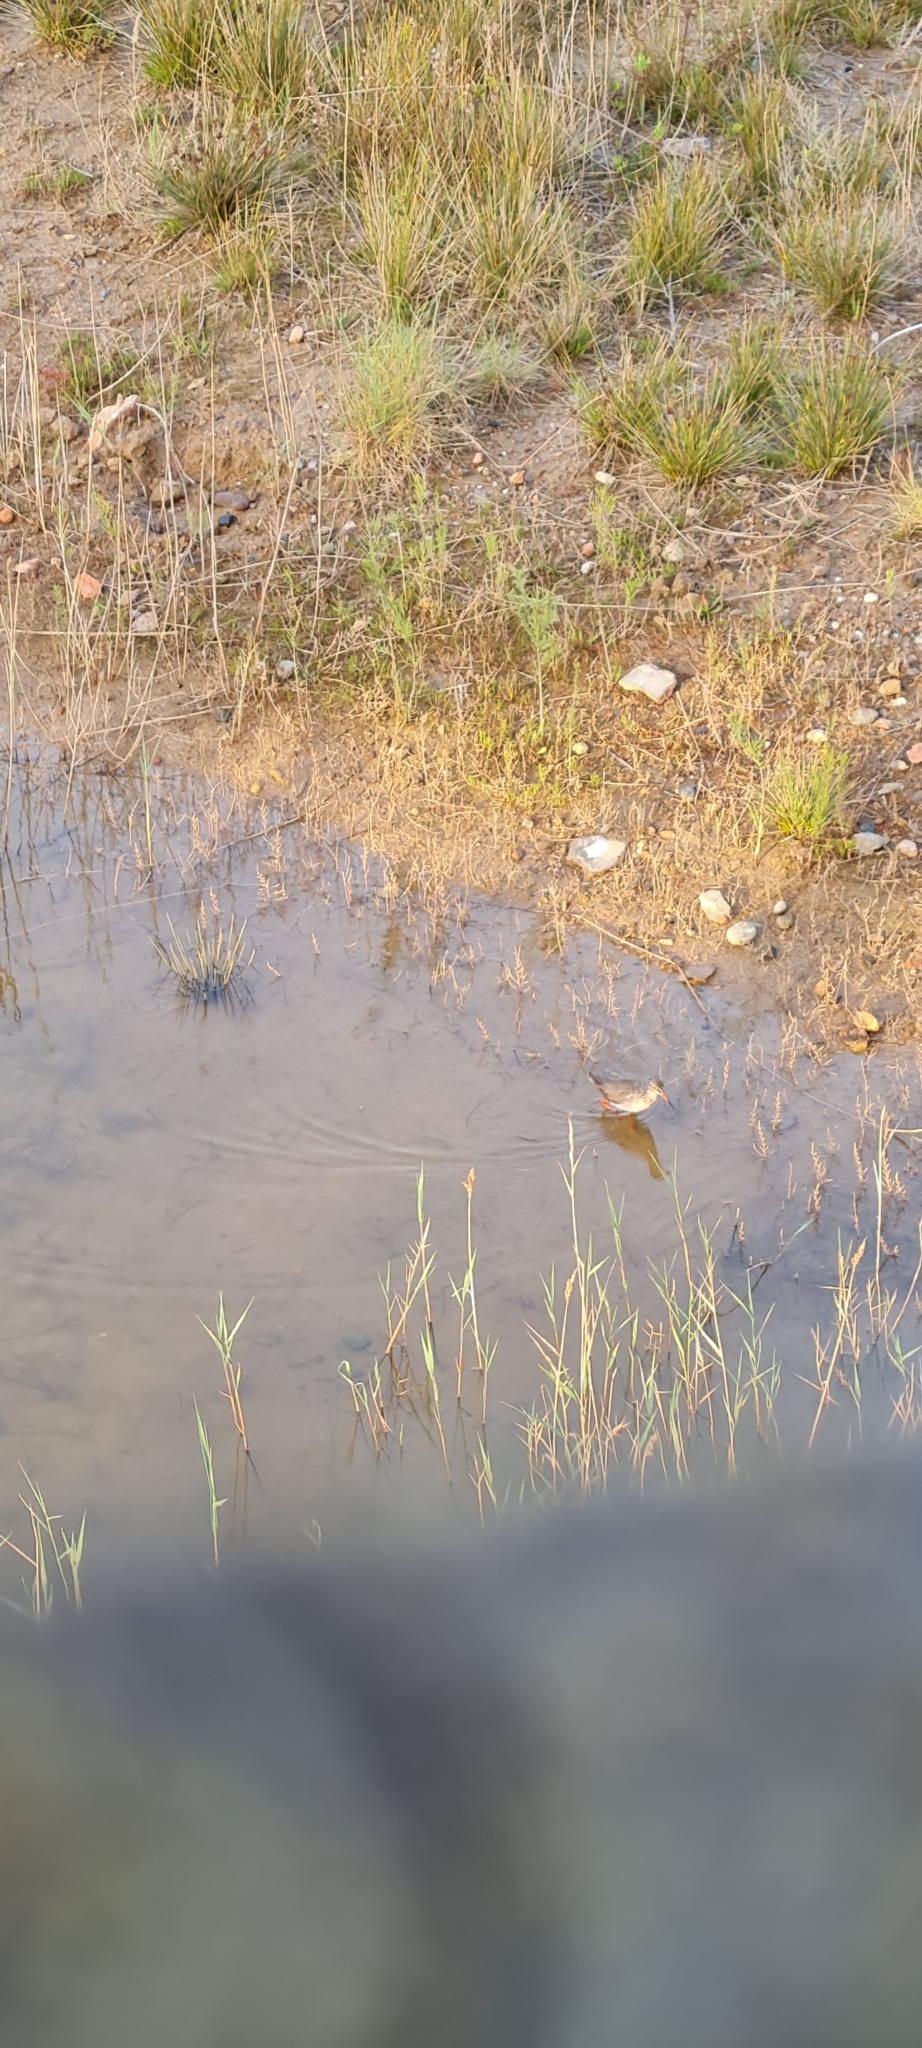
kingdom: Animalia
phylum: Chordata
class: Aves
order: Charadriiformes
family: Scolopacidae
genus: Tringa
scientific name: Tringa totanus
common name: Common redshank
